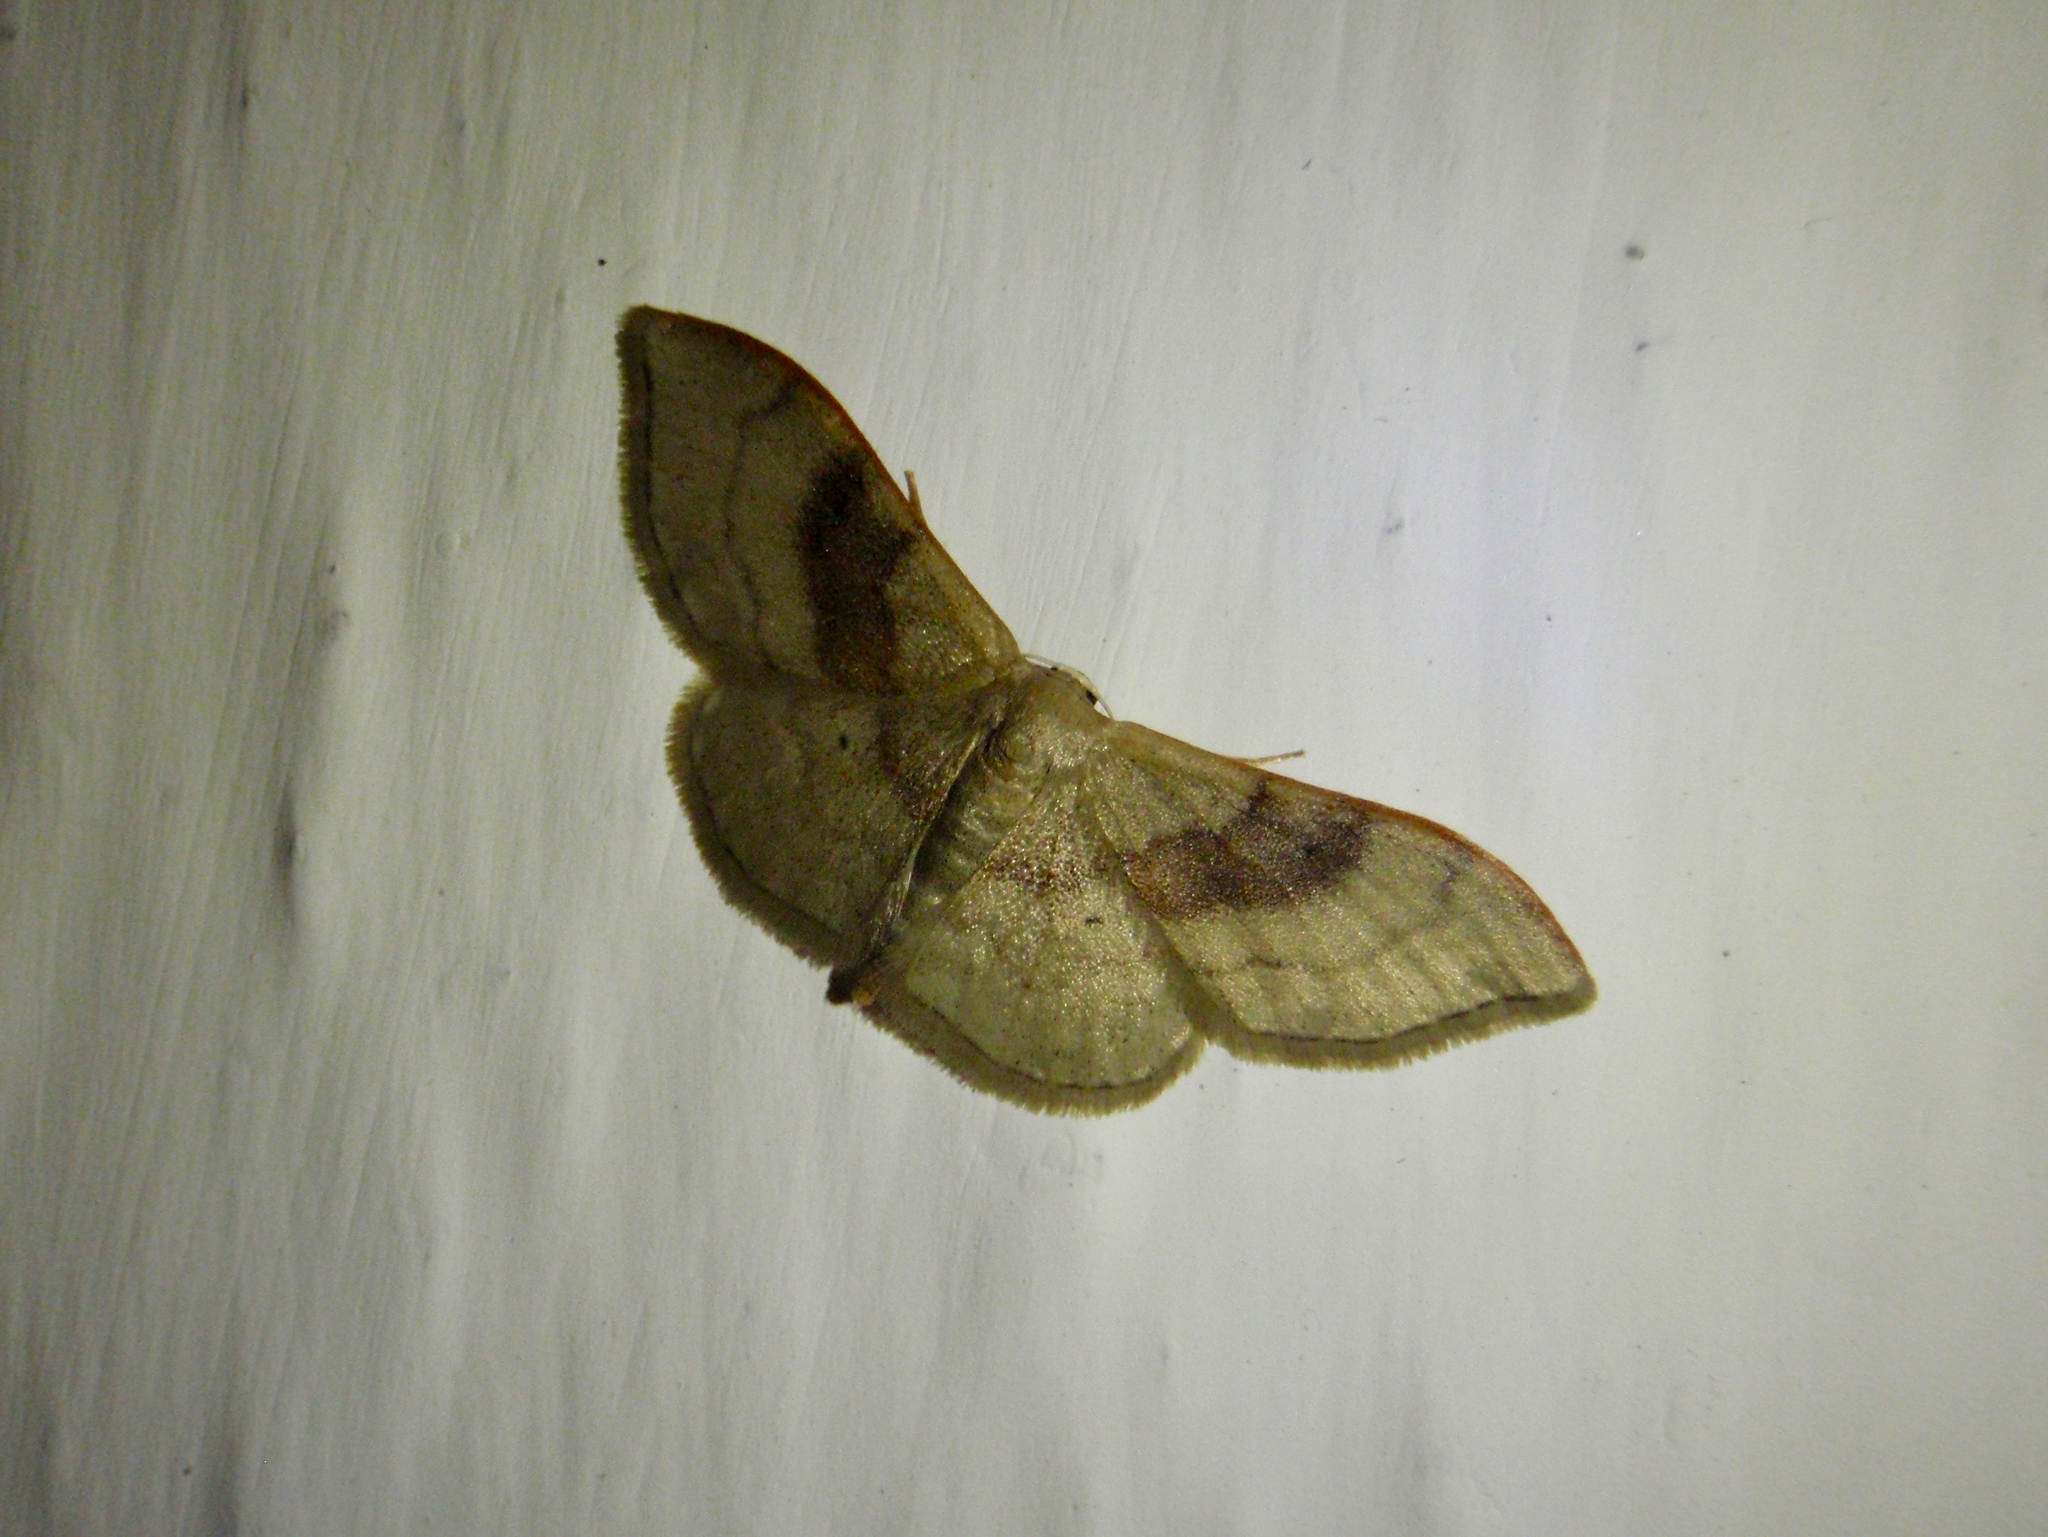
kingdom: Animalia
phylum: Arthropoda
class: Insecta
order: Lepidoptera
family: Geometridae
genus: Idaea
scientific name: Idaea degeneraria
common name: Portland ribbon wave
